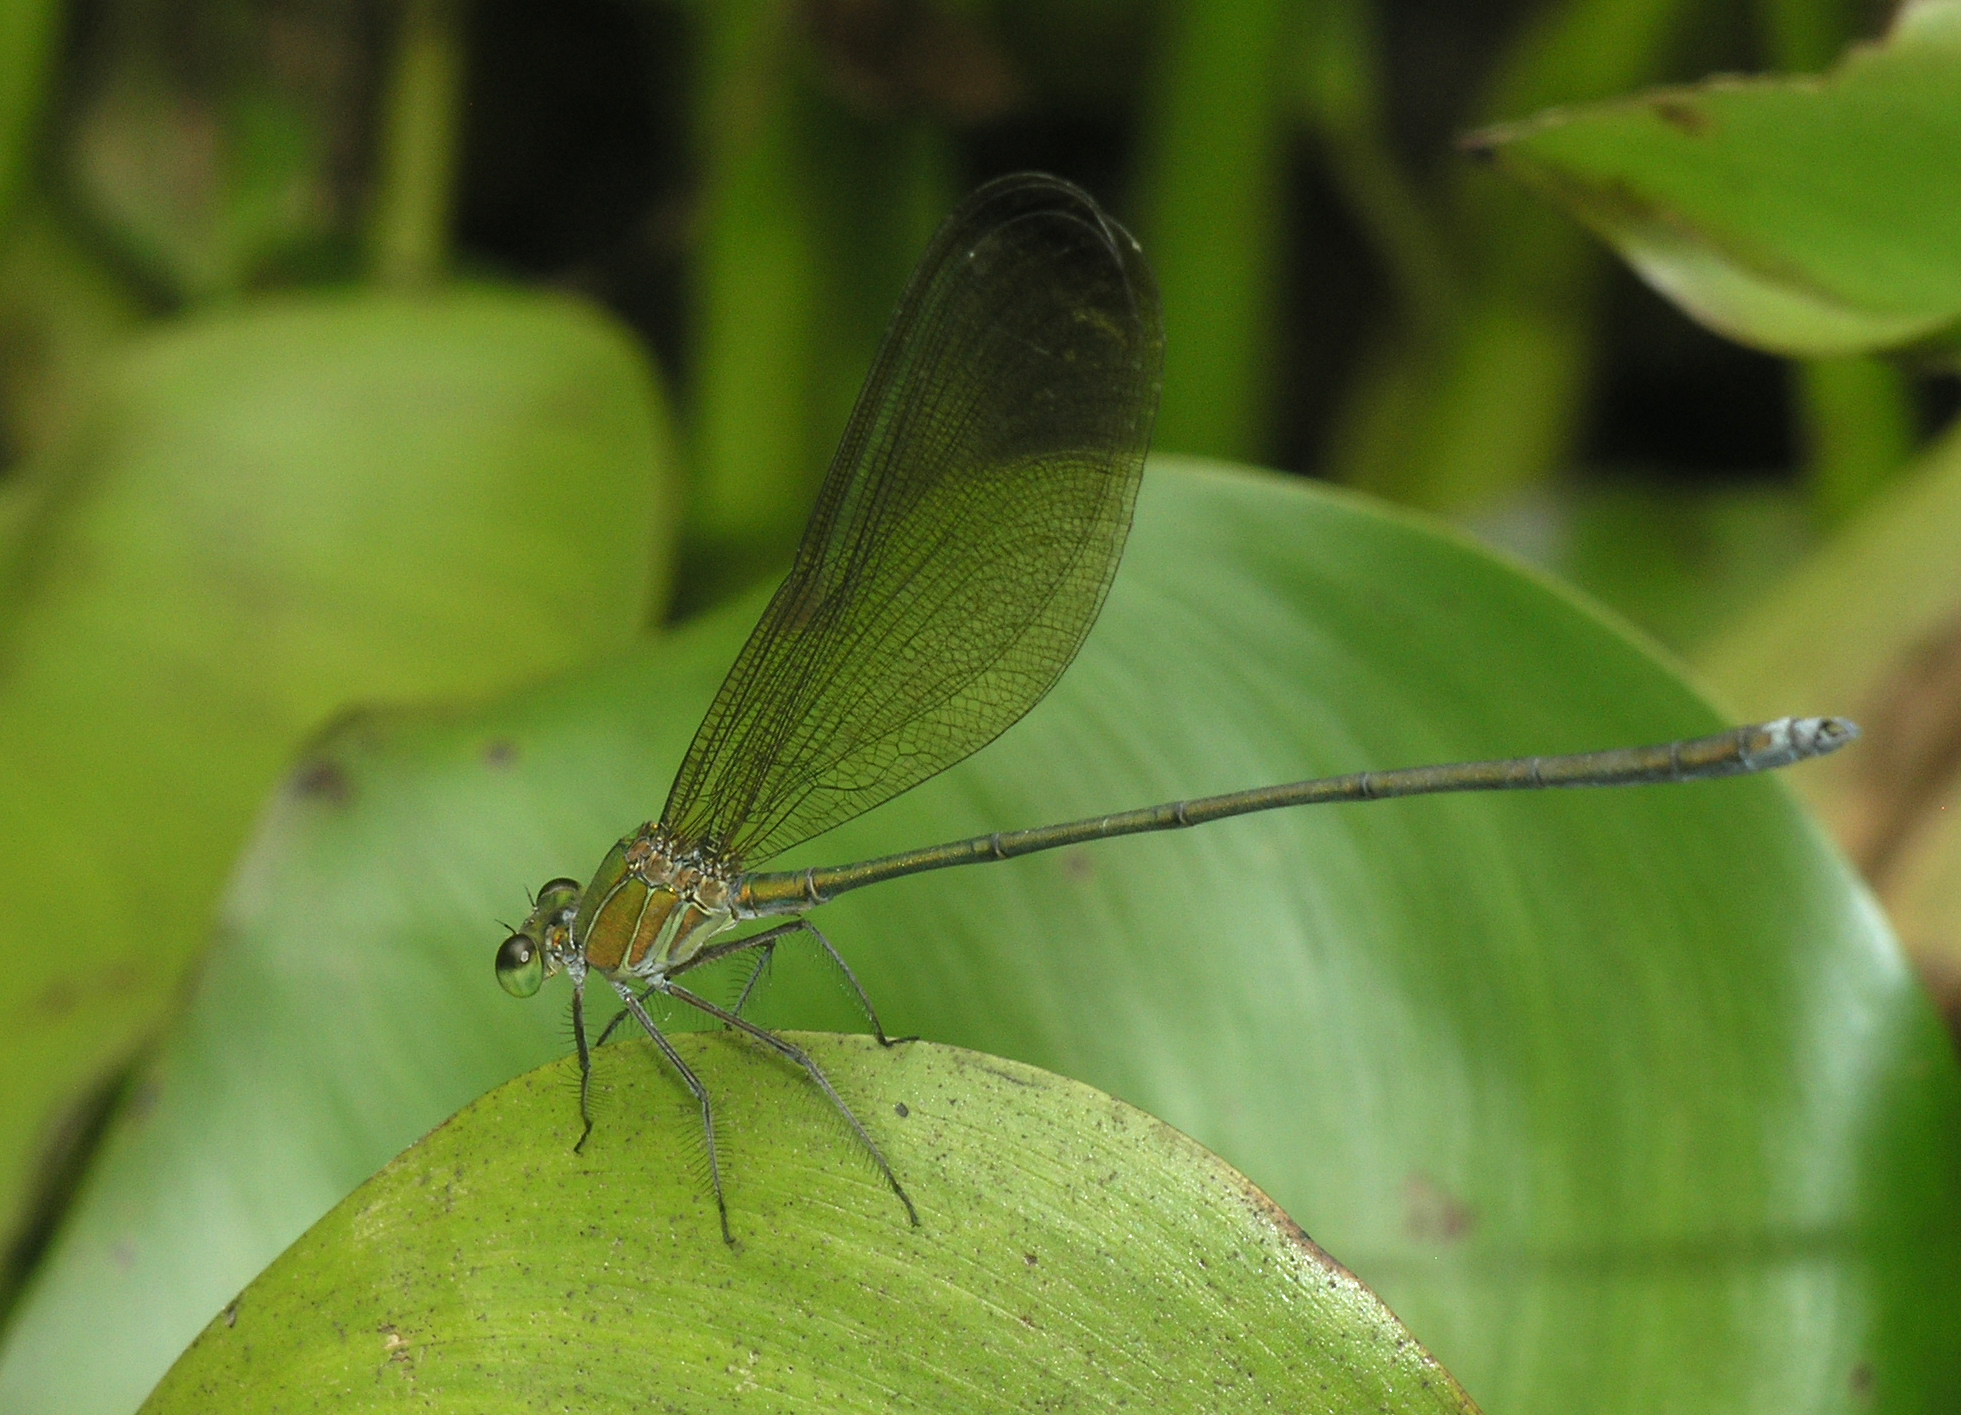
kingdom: Animalia
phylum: Arthropoda
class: Insecta
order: Odonata
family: Calopterygidae
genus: Vestalis
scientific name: Vestalis gracilis
